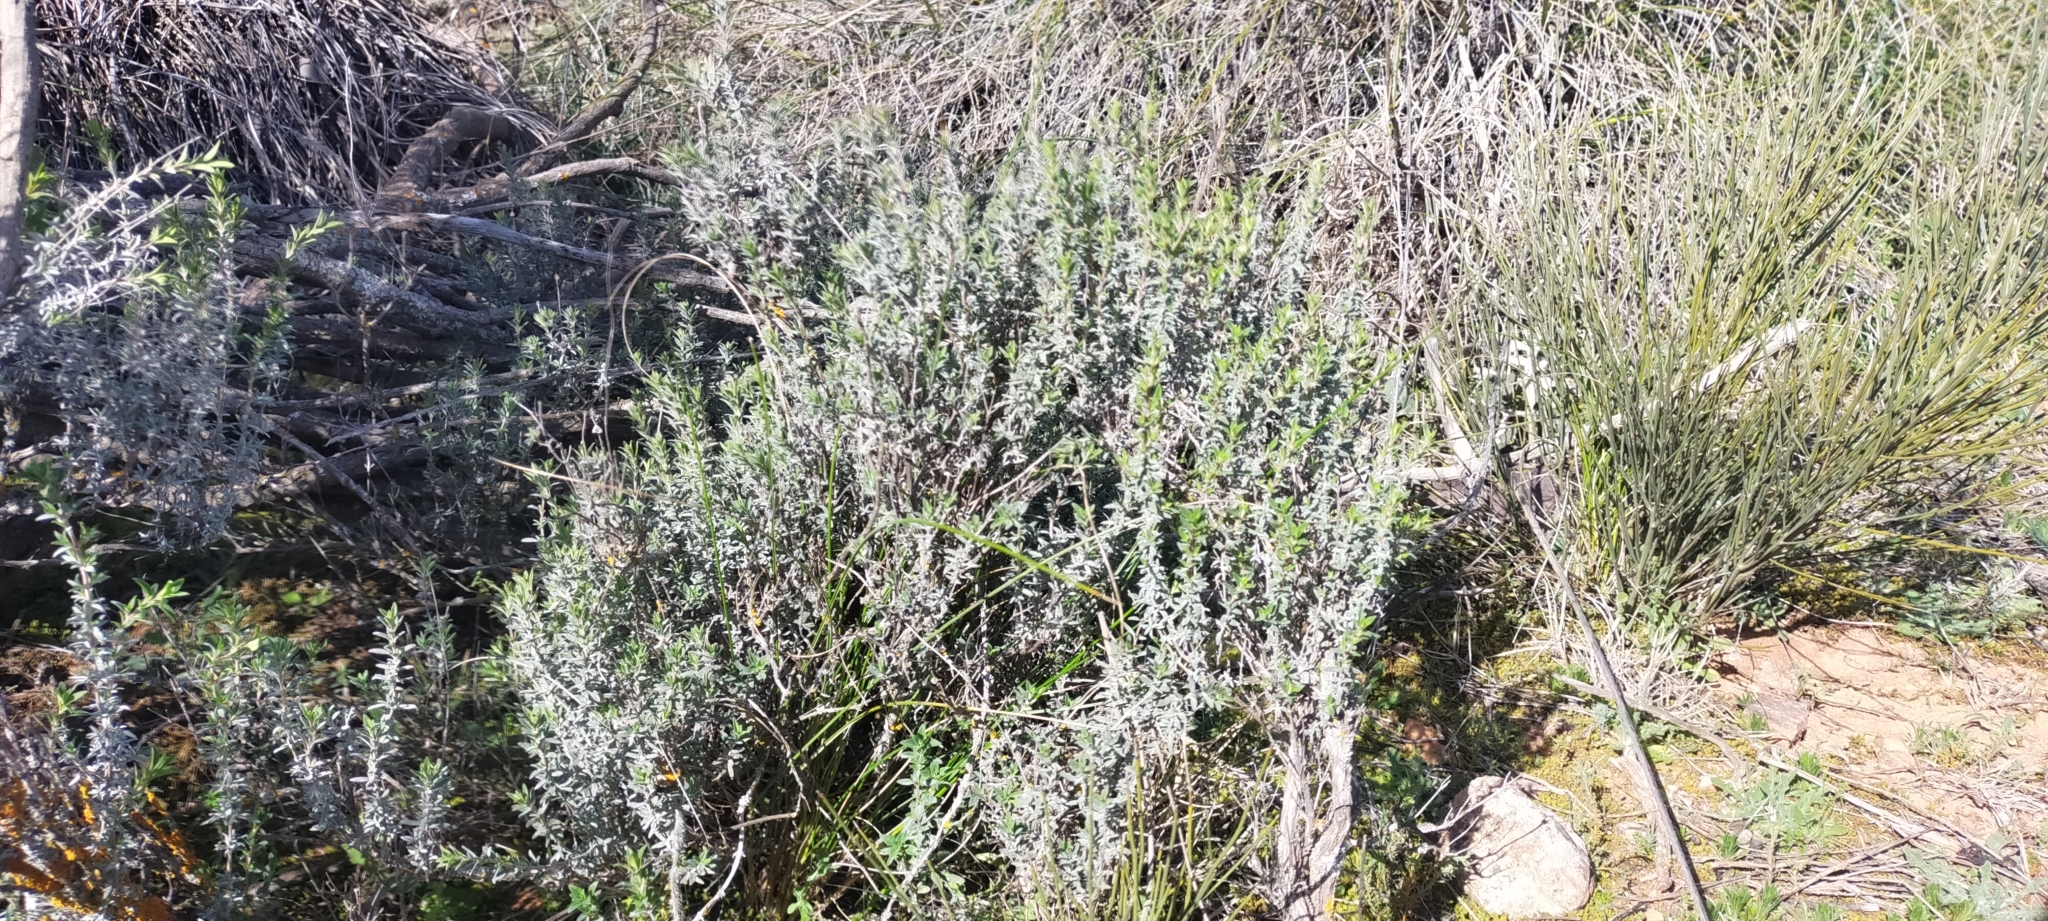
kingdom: Plantae
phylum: Tracheophyta
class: Magnoliopsida
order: Lamiales
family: Lamiaceae
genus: Thymus
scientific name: Thymus mastichina
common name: Mastic thyme
